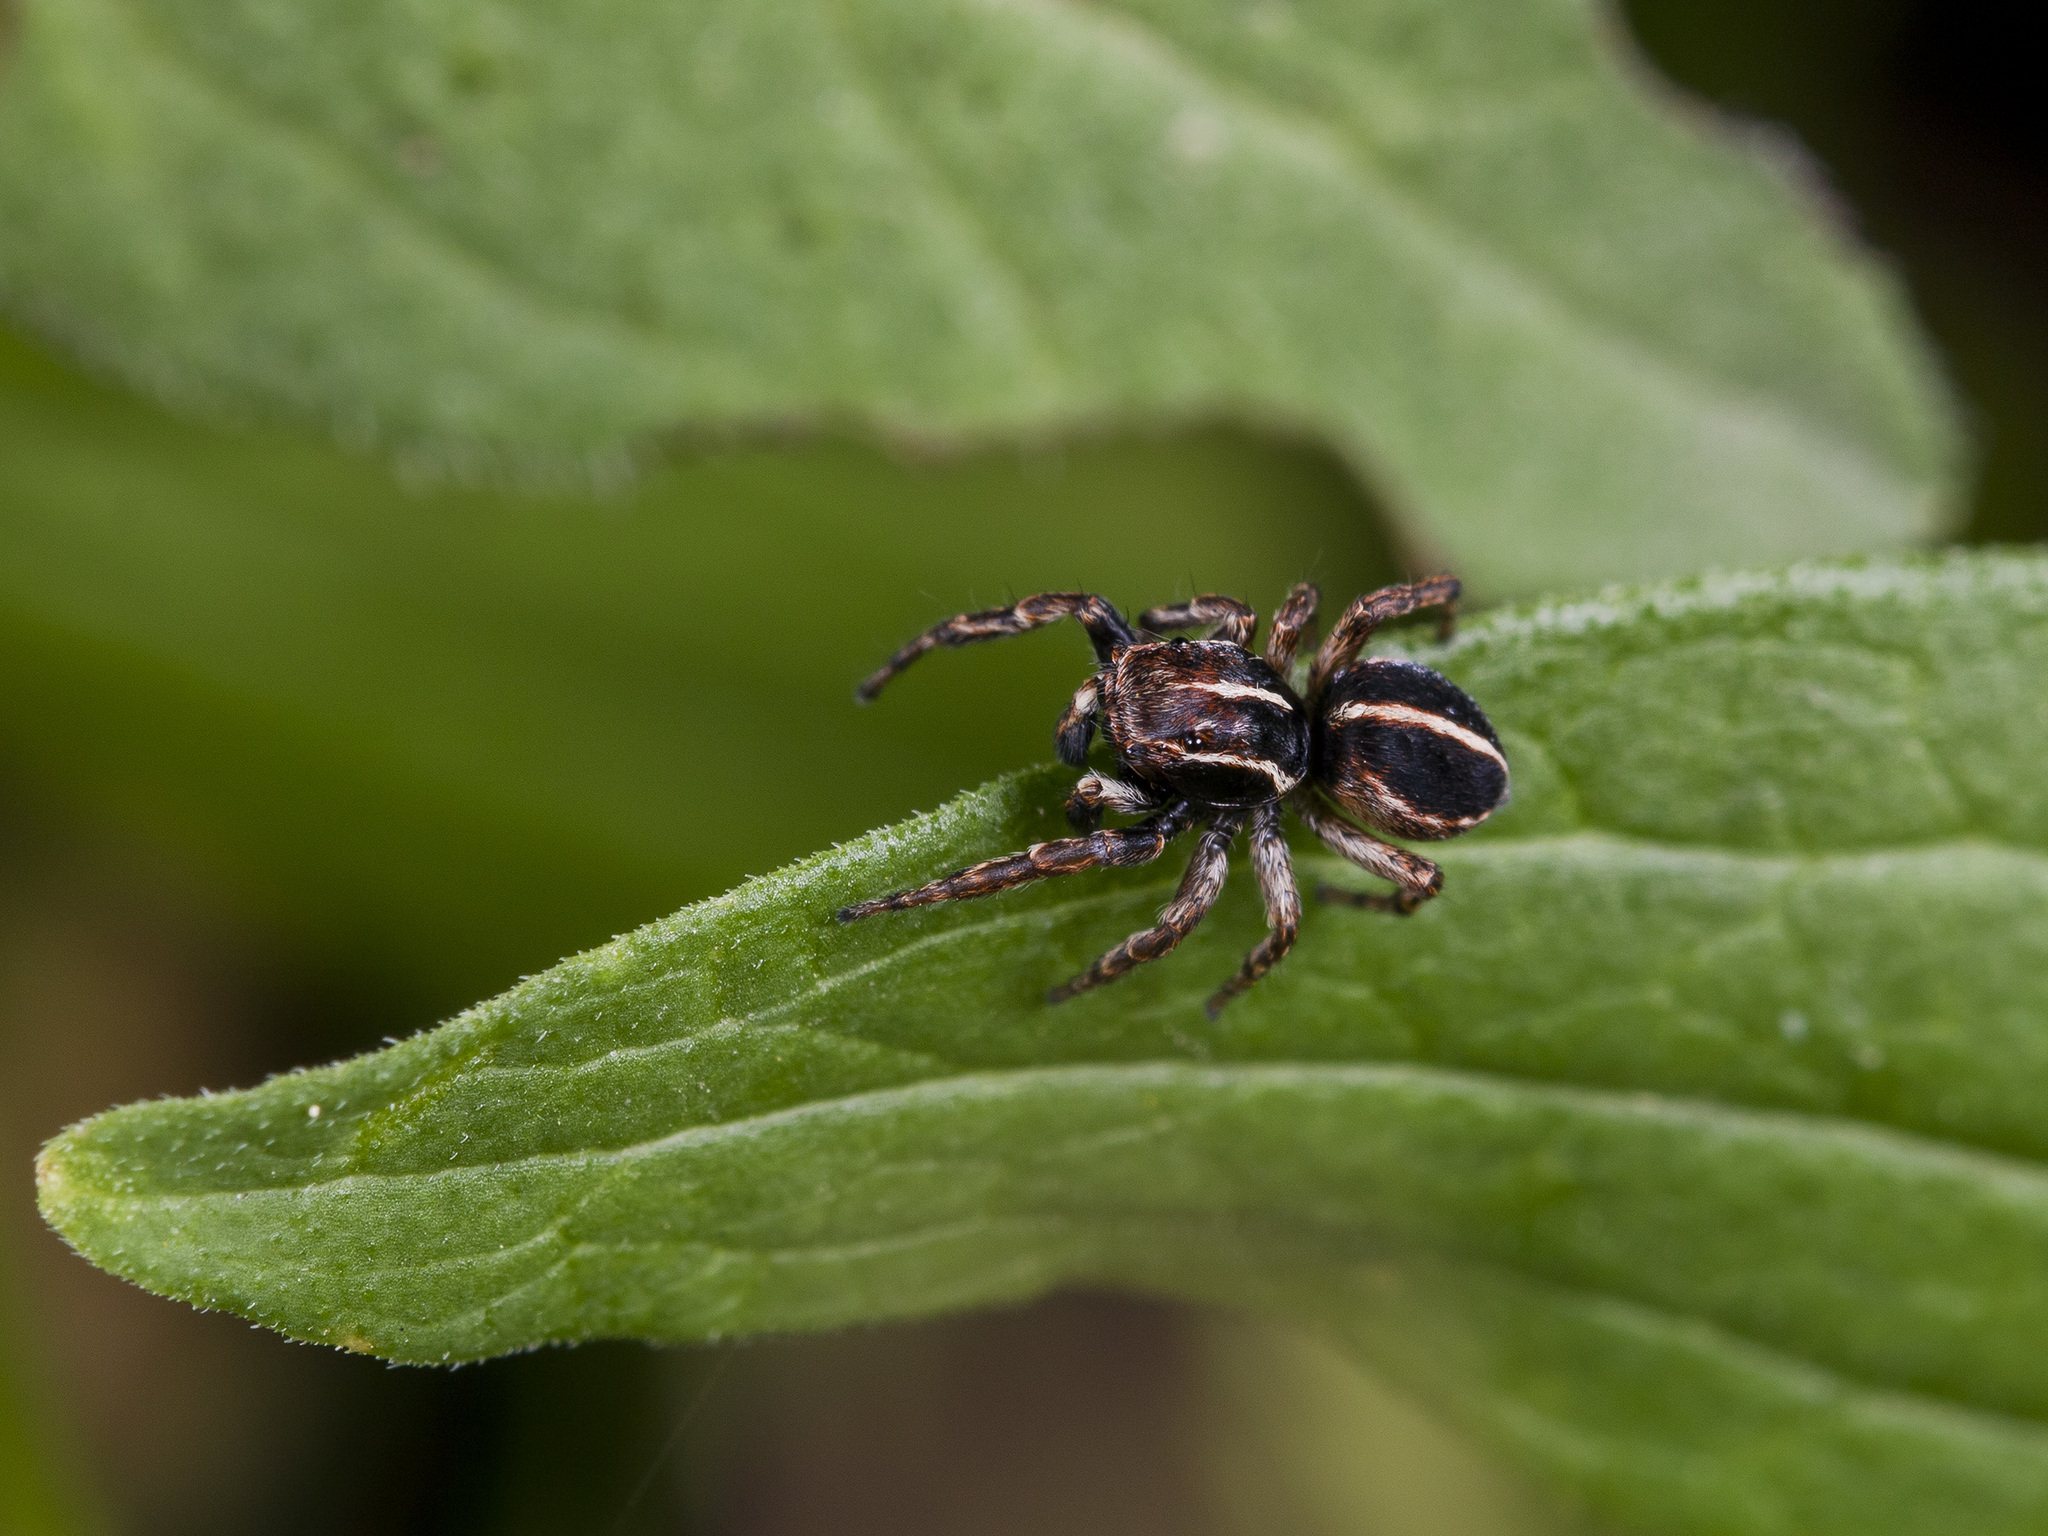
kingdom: Animalia
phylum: Arthropoda
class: Arachnida
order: Araneae
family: Salticidae
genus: Attulus
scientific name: Attulus monstrabilis
